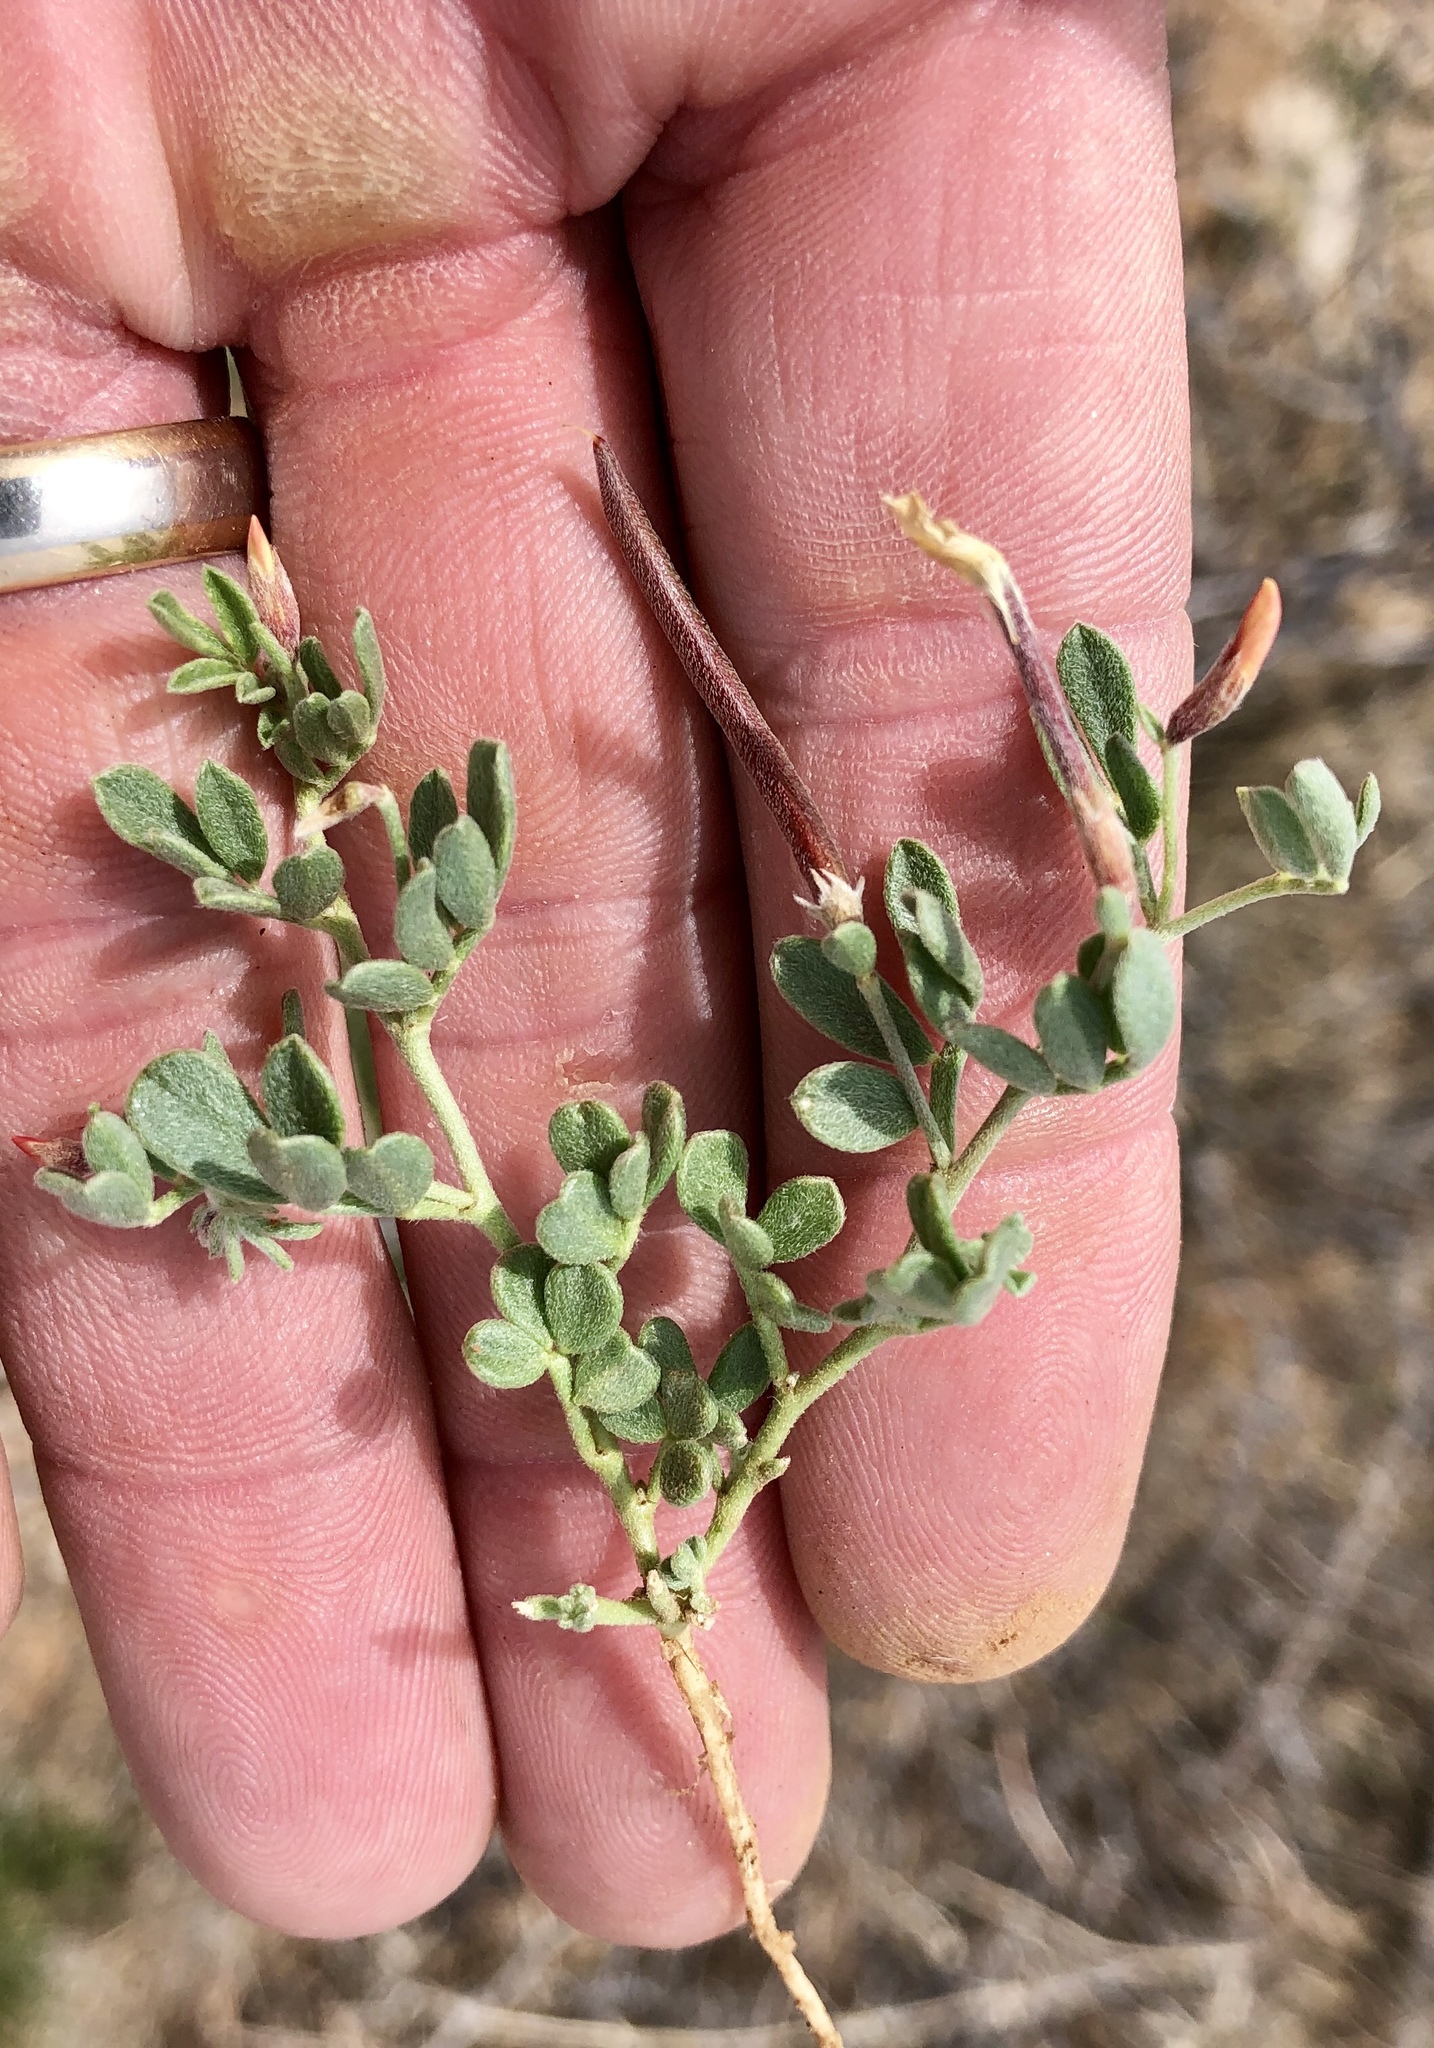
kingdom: Plantae
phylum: Tracheophyta
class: Magnoliopsida
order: Fabales
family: Fabaceae
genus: Acmispon
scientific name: Acmispon oroboides
